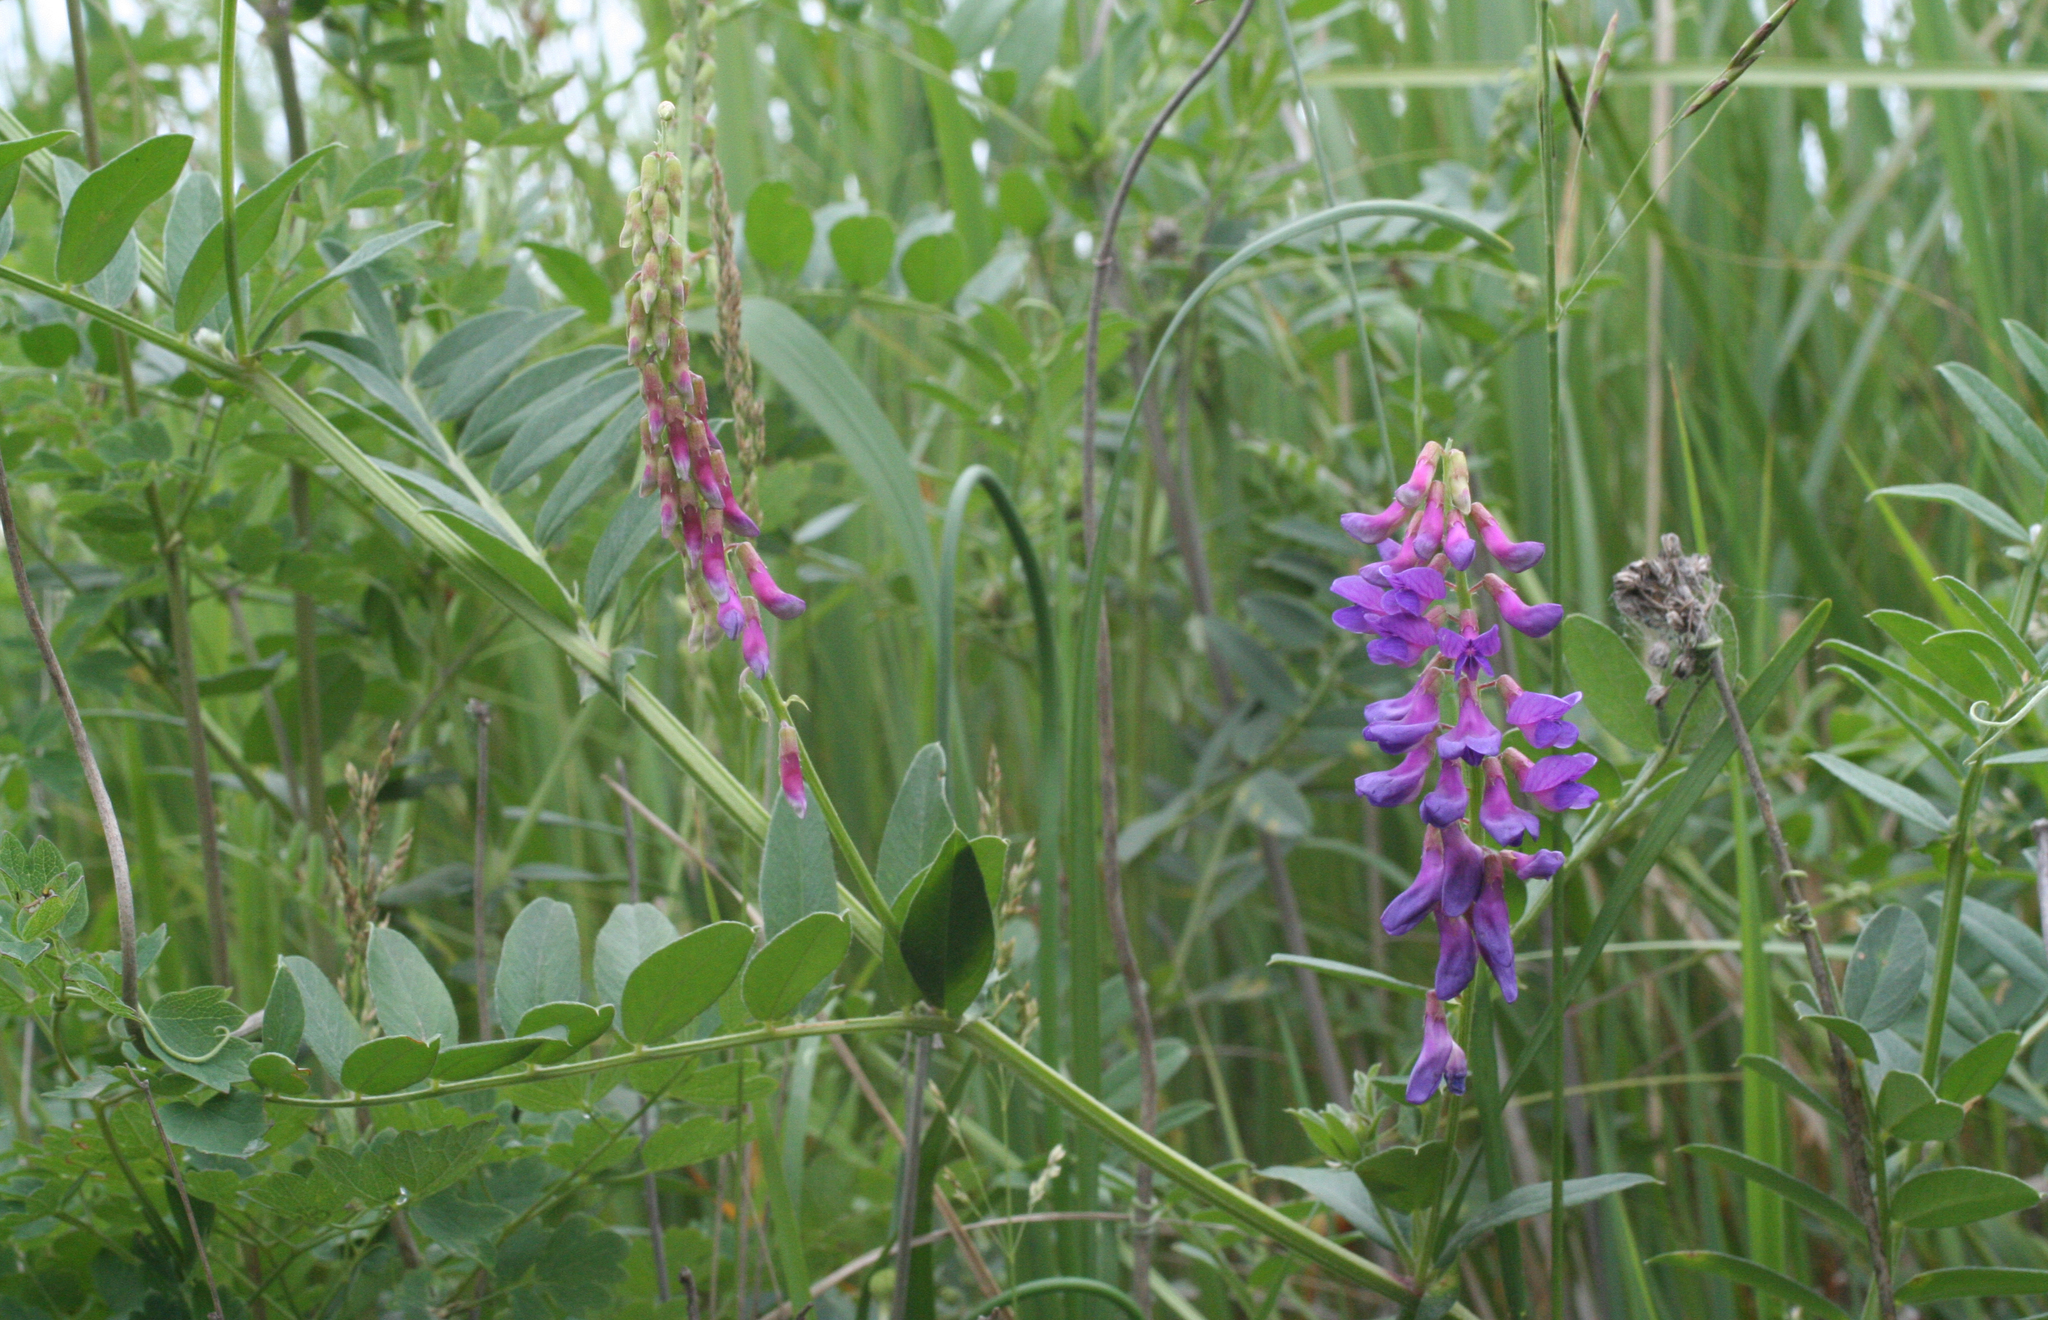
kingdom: Plantae
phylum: Tracheophyta
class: Magnoliopsida
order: Fabales
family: Fabaceae
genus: Vicia
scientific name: Vicia amoena
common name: Cheder ebs
